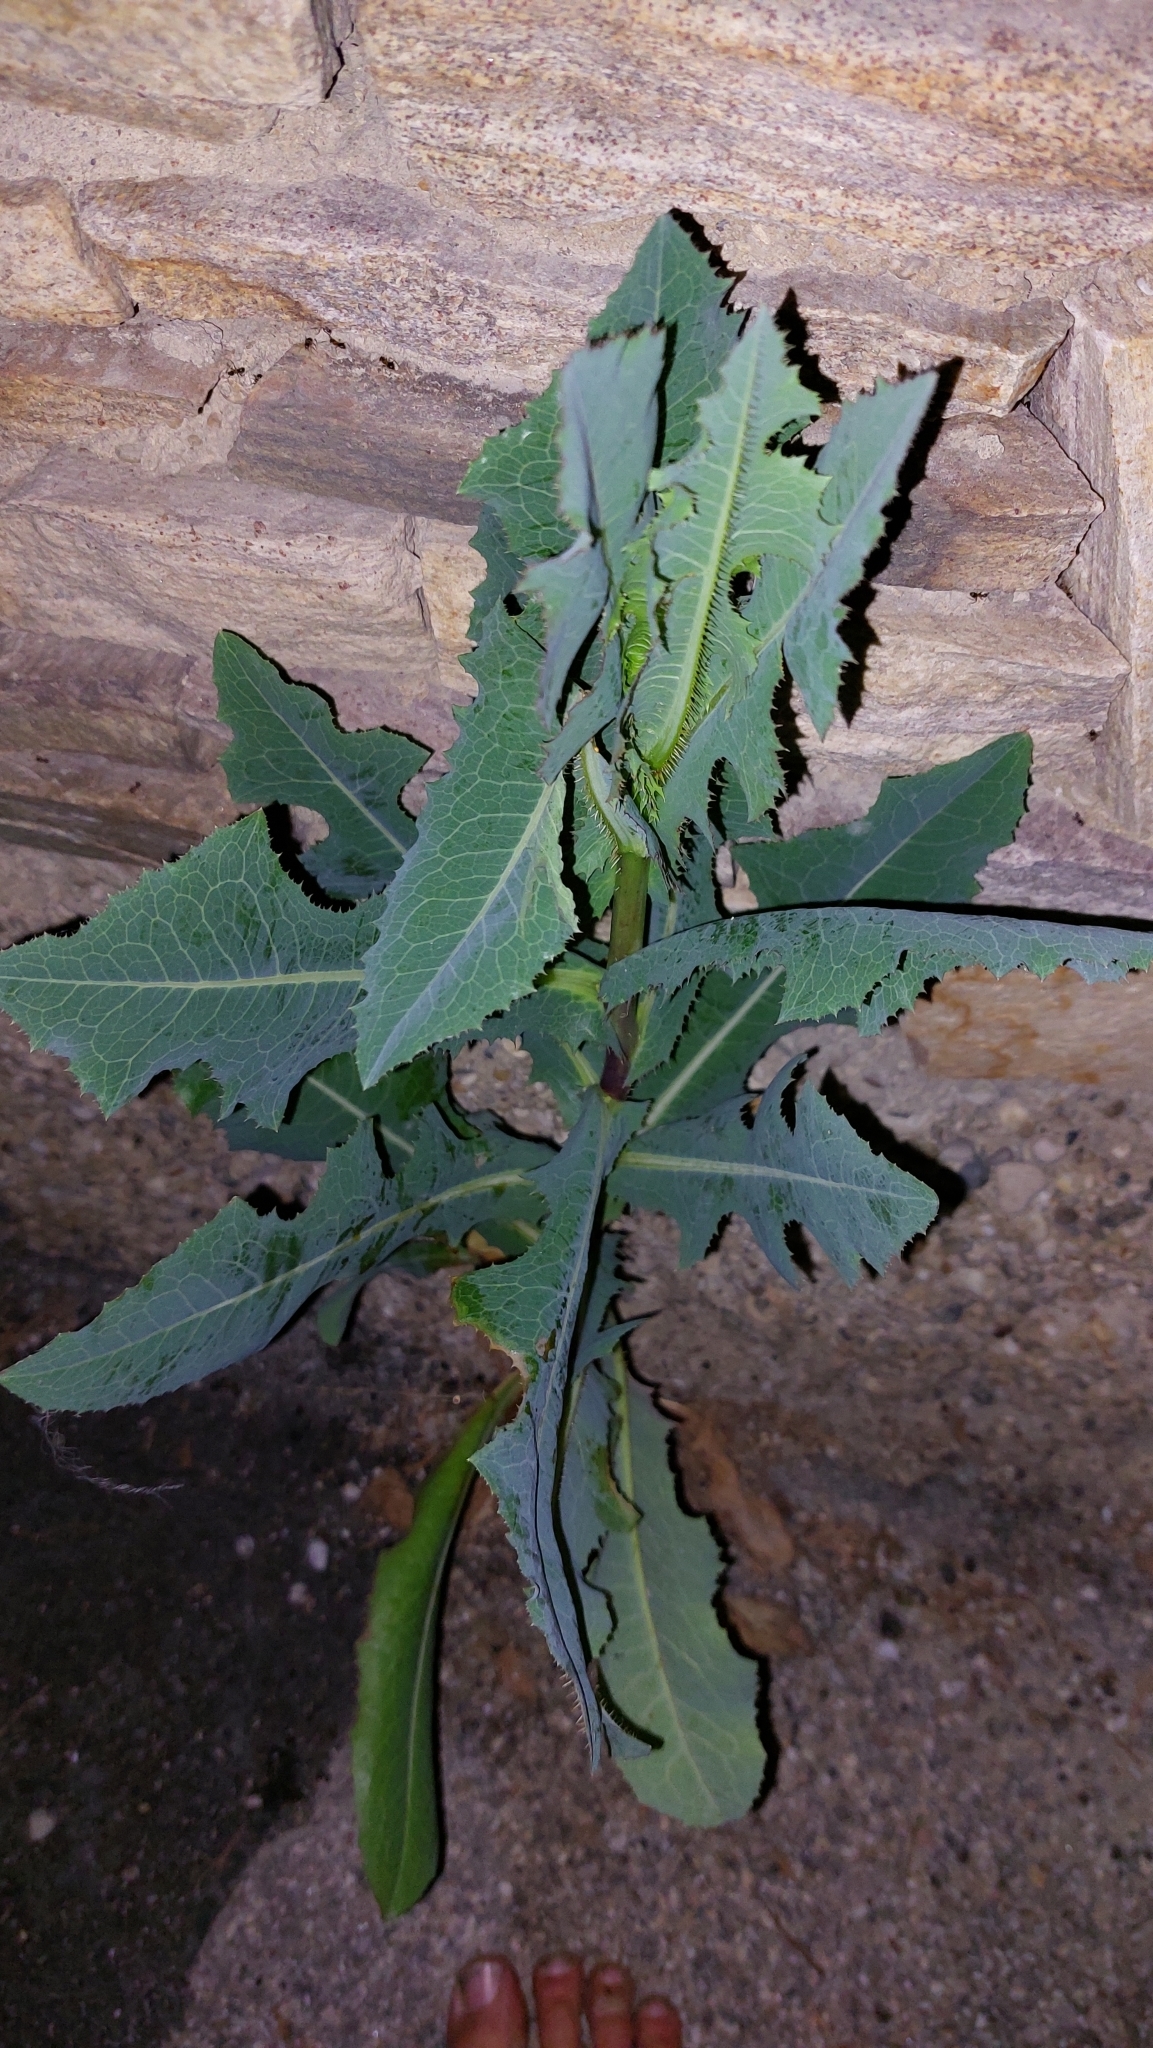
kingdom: Plantae
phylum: Tracheophyta
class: Magnoliopsida
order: Asterales
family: Asteraceae
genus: Lactuca
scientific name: Lactuca serriola
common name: Prickly lettuce
